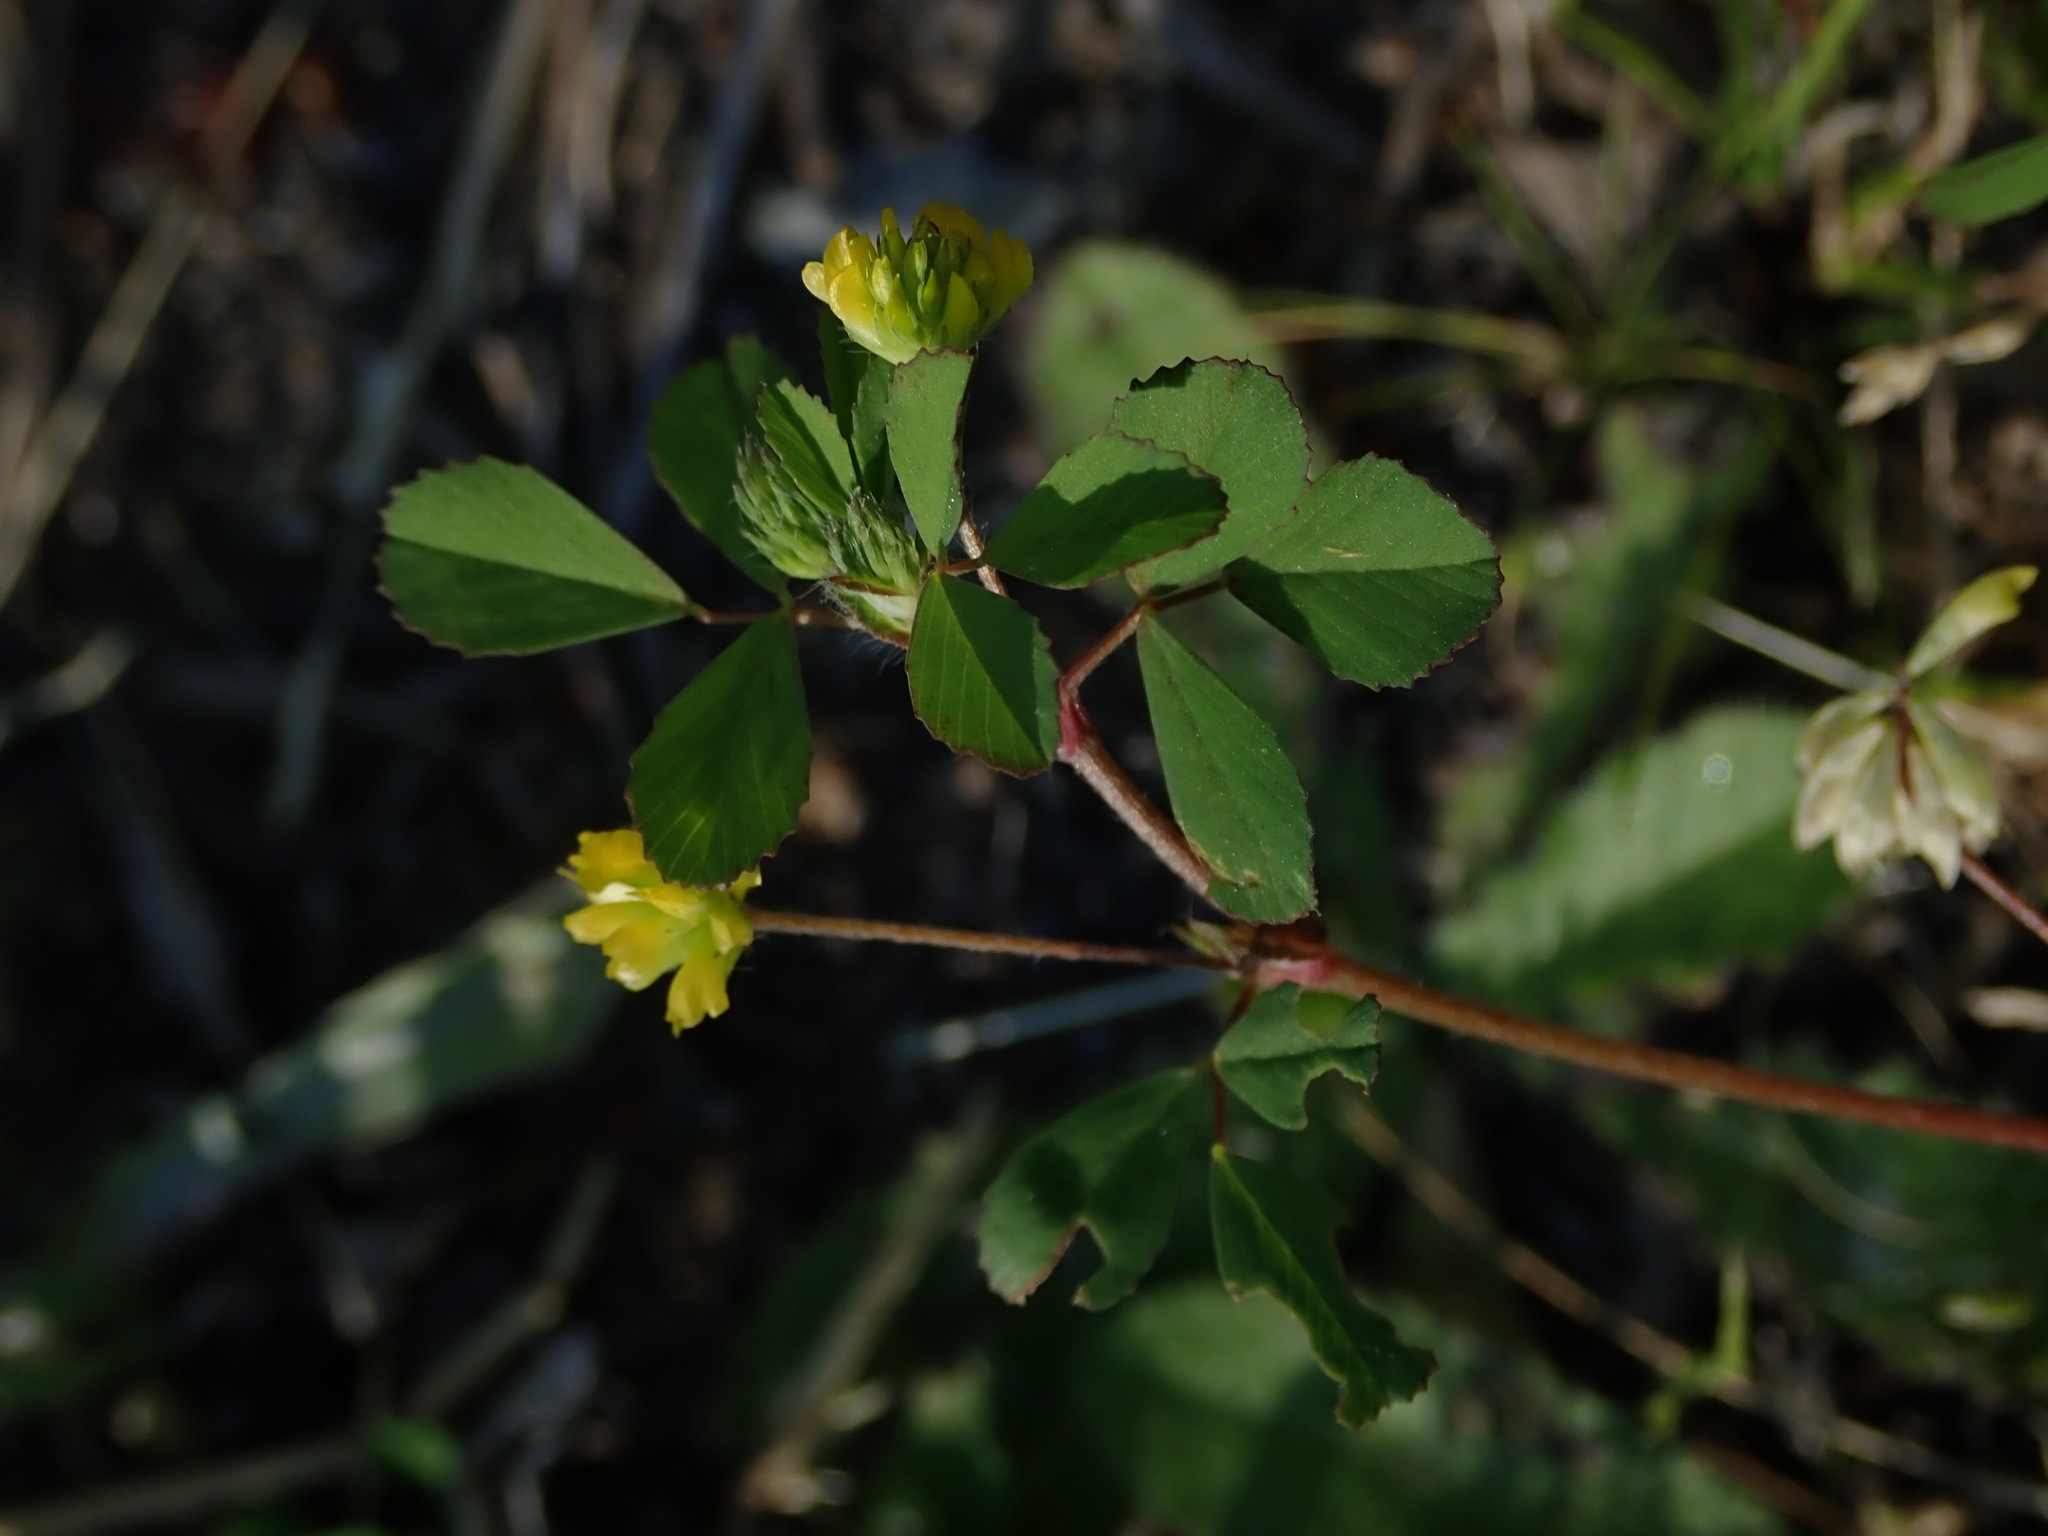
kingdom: Plantae
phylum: Tracheophyta
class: Magnoliopsida
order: Fabales
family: Fabaceae
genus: Trifolium
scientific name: Trifolium dubium
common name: Suckling clover
